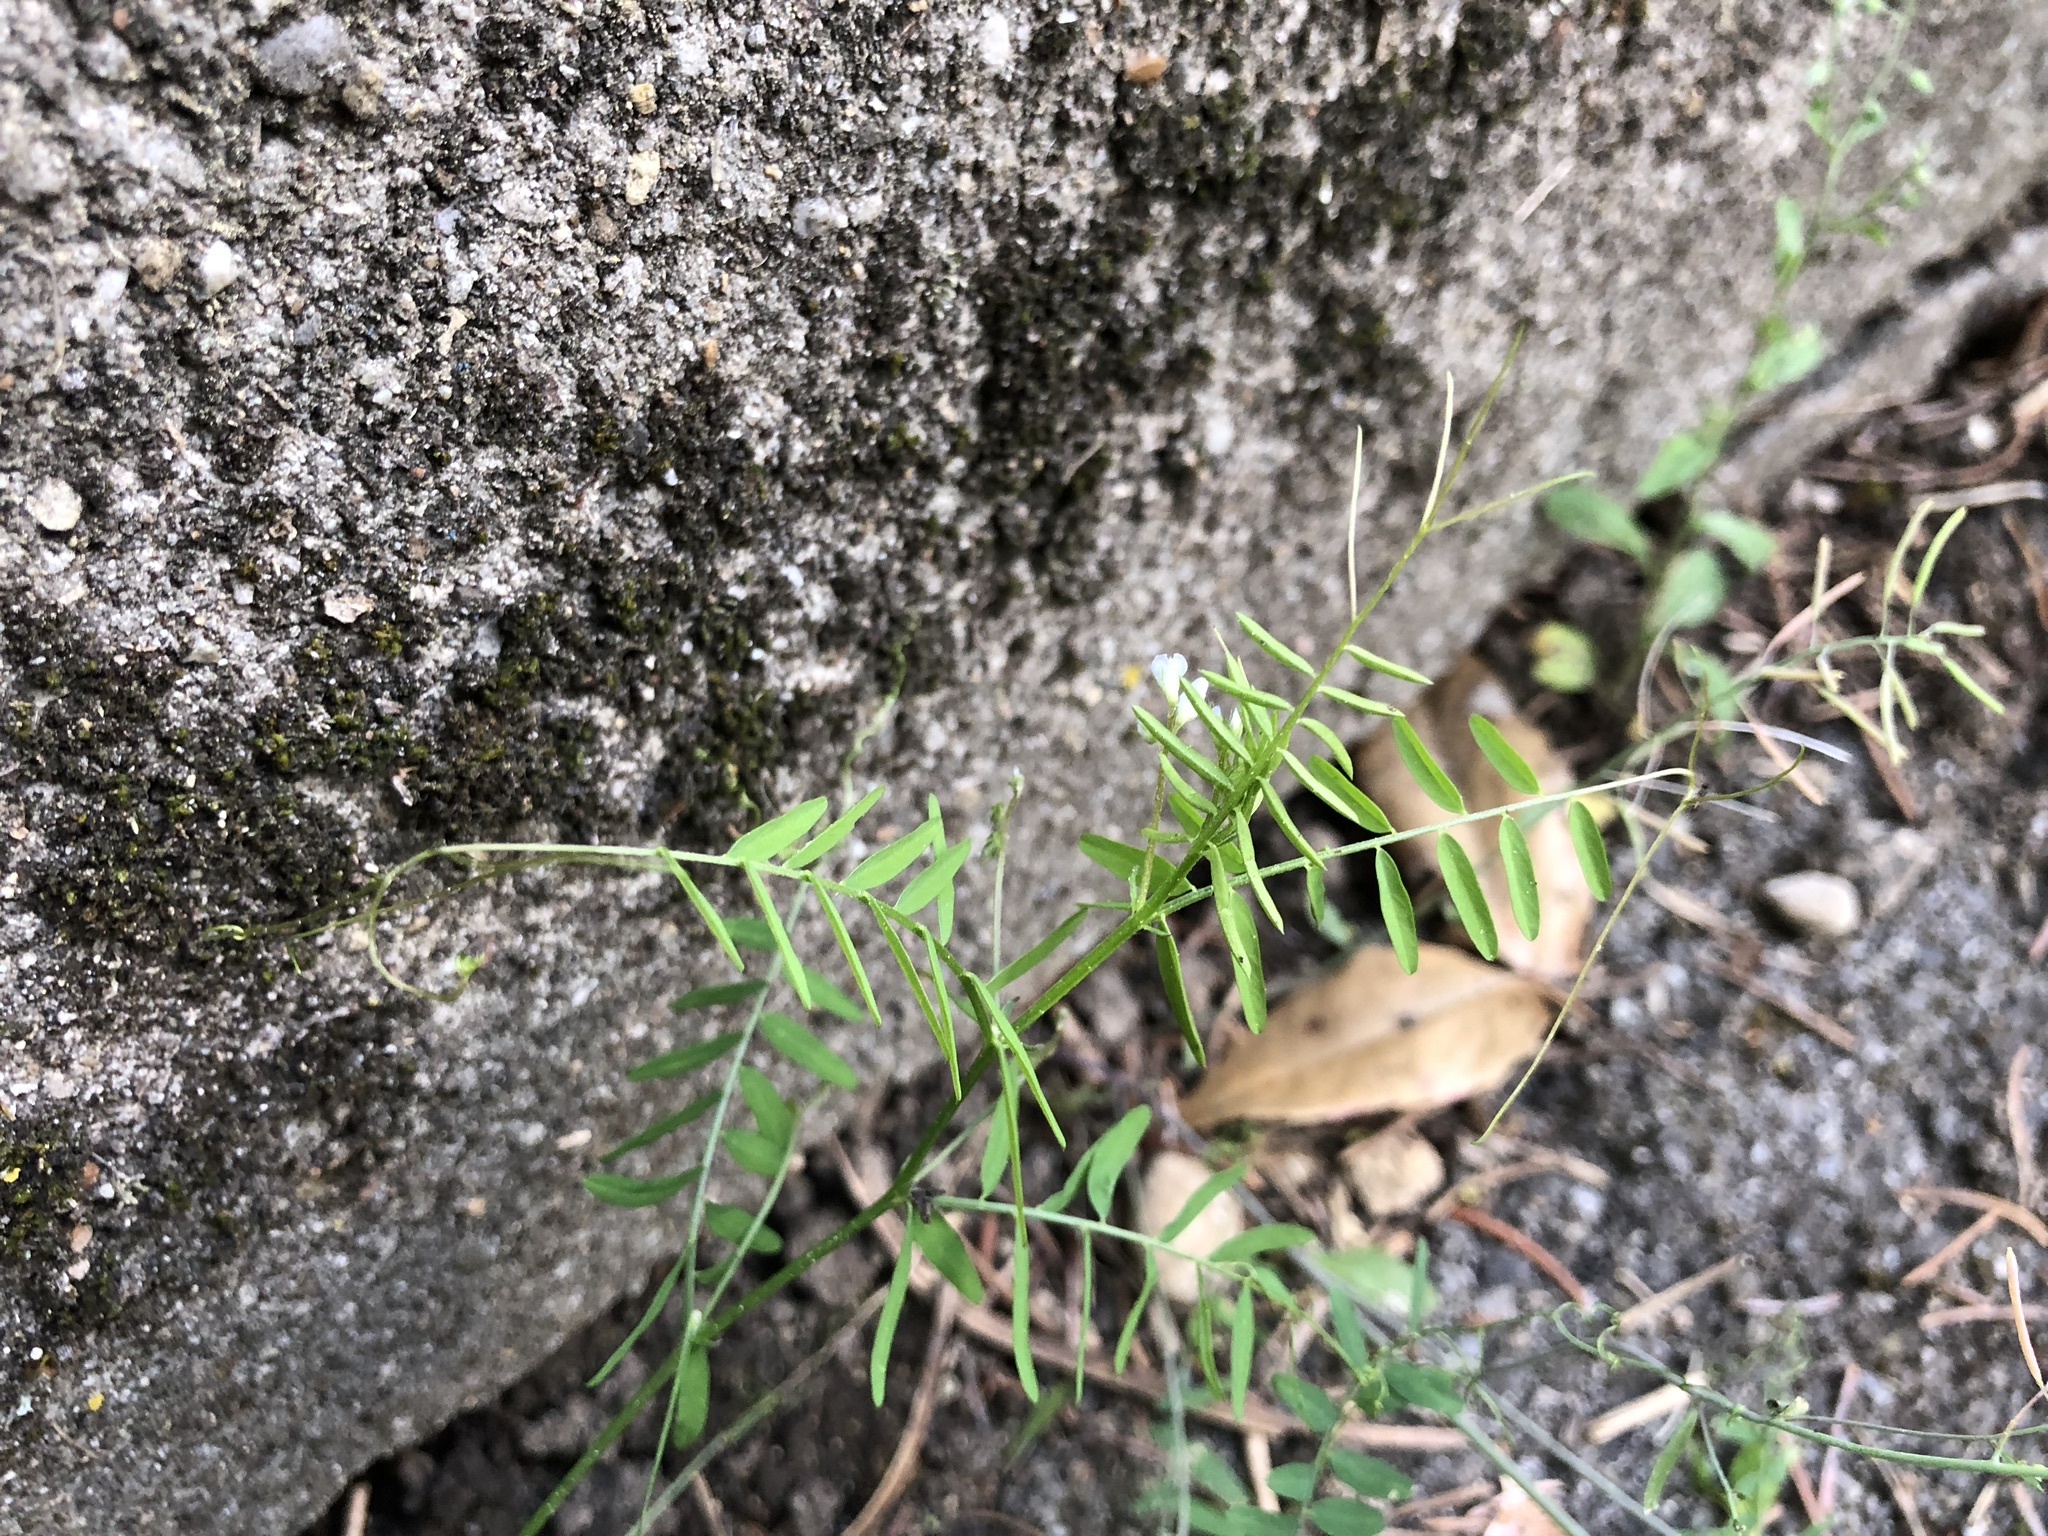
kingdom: Plantae
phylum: Tracheophyta
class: Magnoliopsida
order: Fabales
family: Fabaceae
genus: Vicia
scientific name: Vicia hirsuta
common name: Tiny vetch
